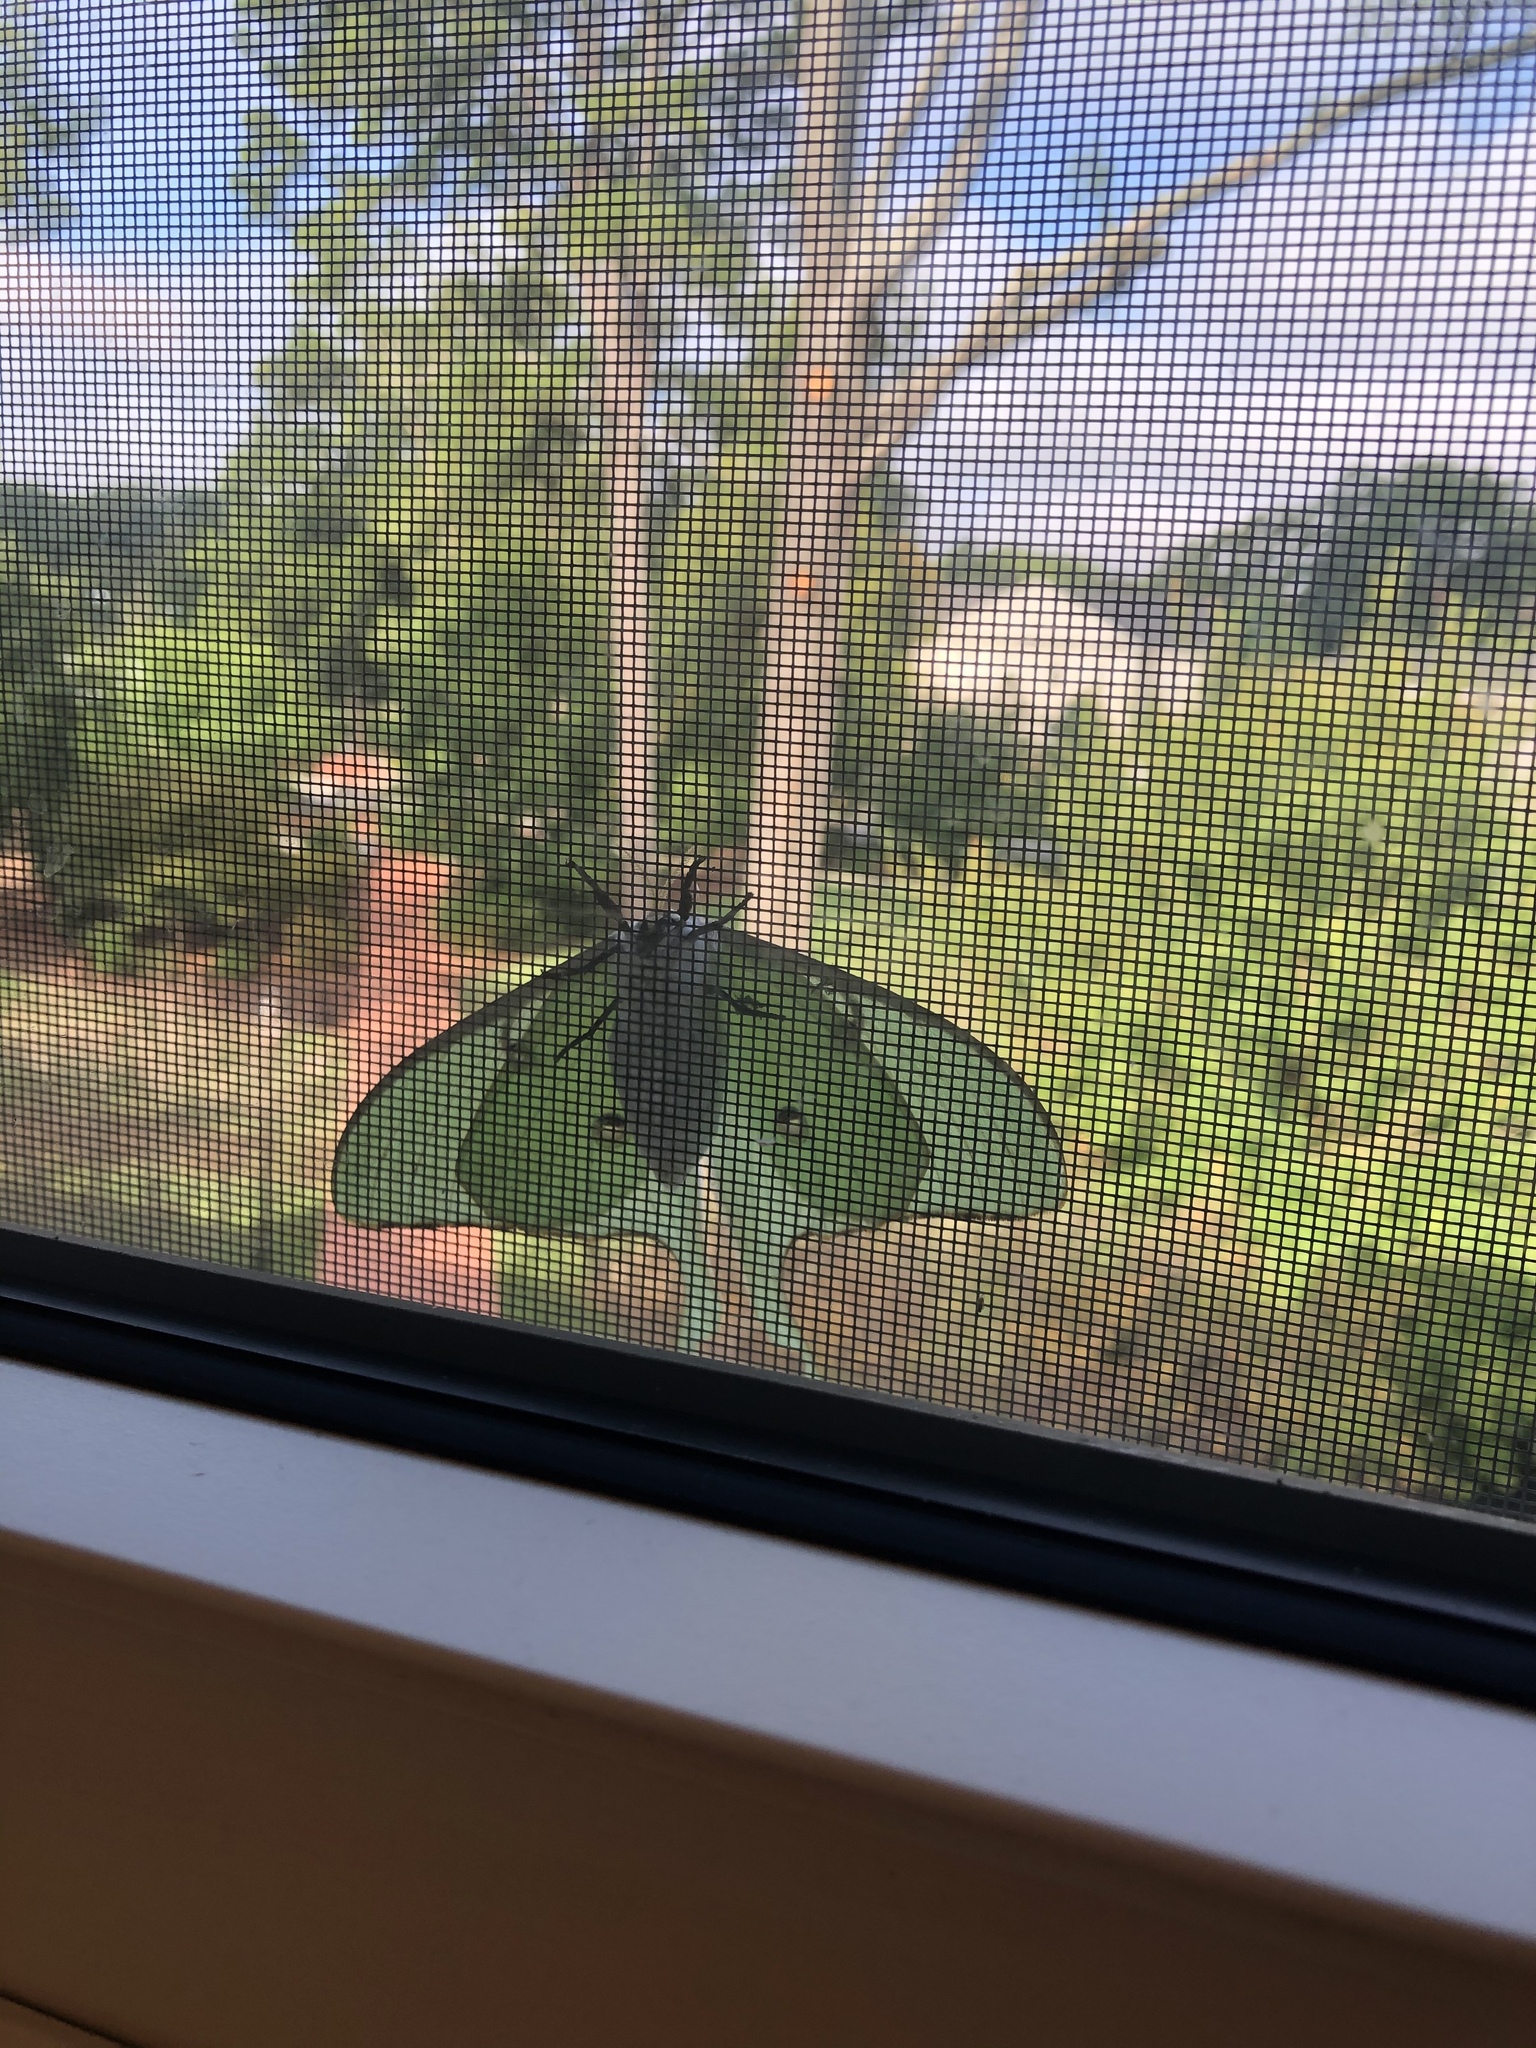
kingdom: Animalia
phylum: Arthropoda
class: Insecta
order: Lepidoptera
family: Saturniidae
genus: Actias
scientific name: Actias luna
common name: Luna moth
